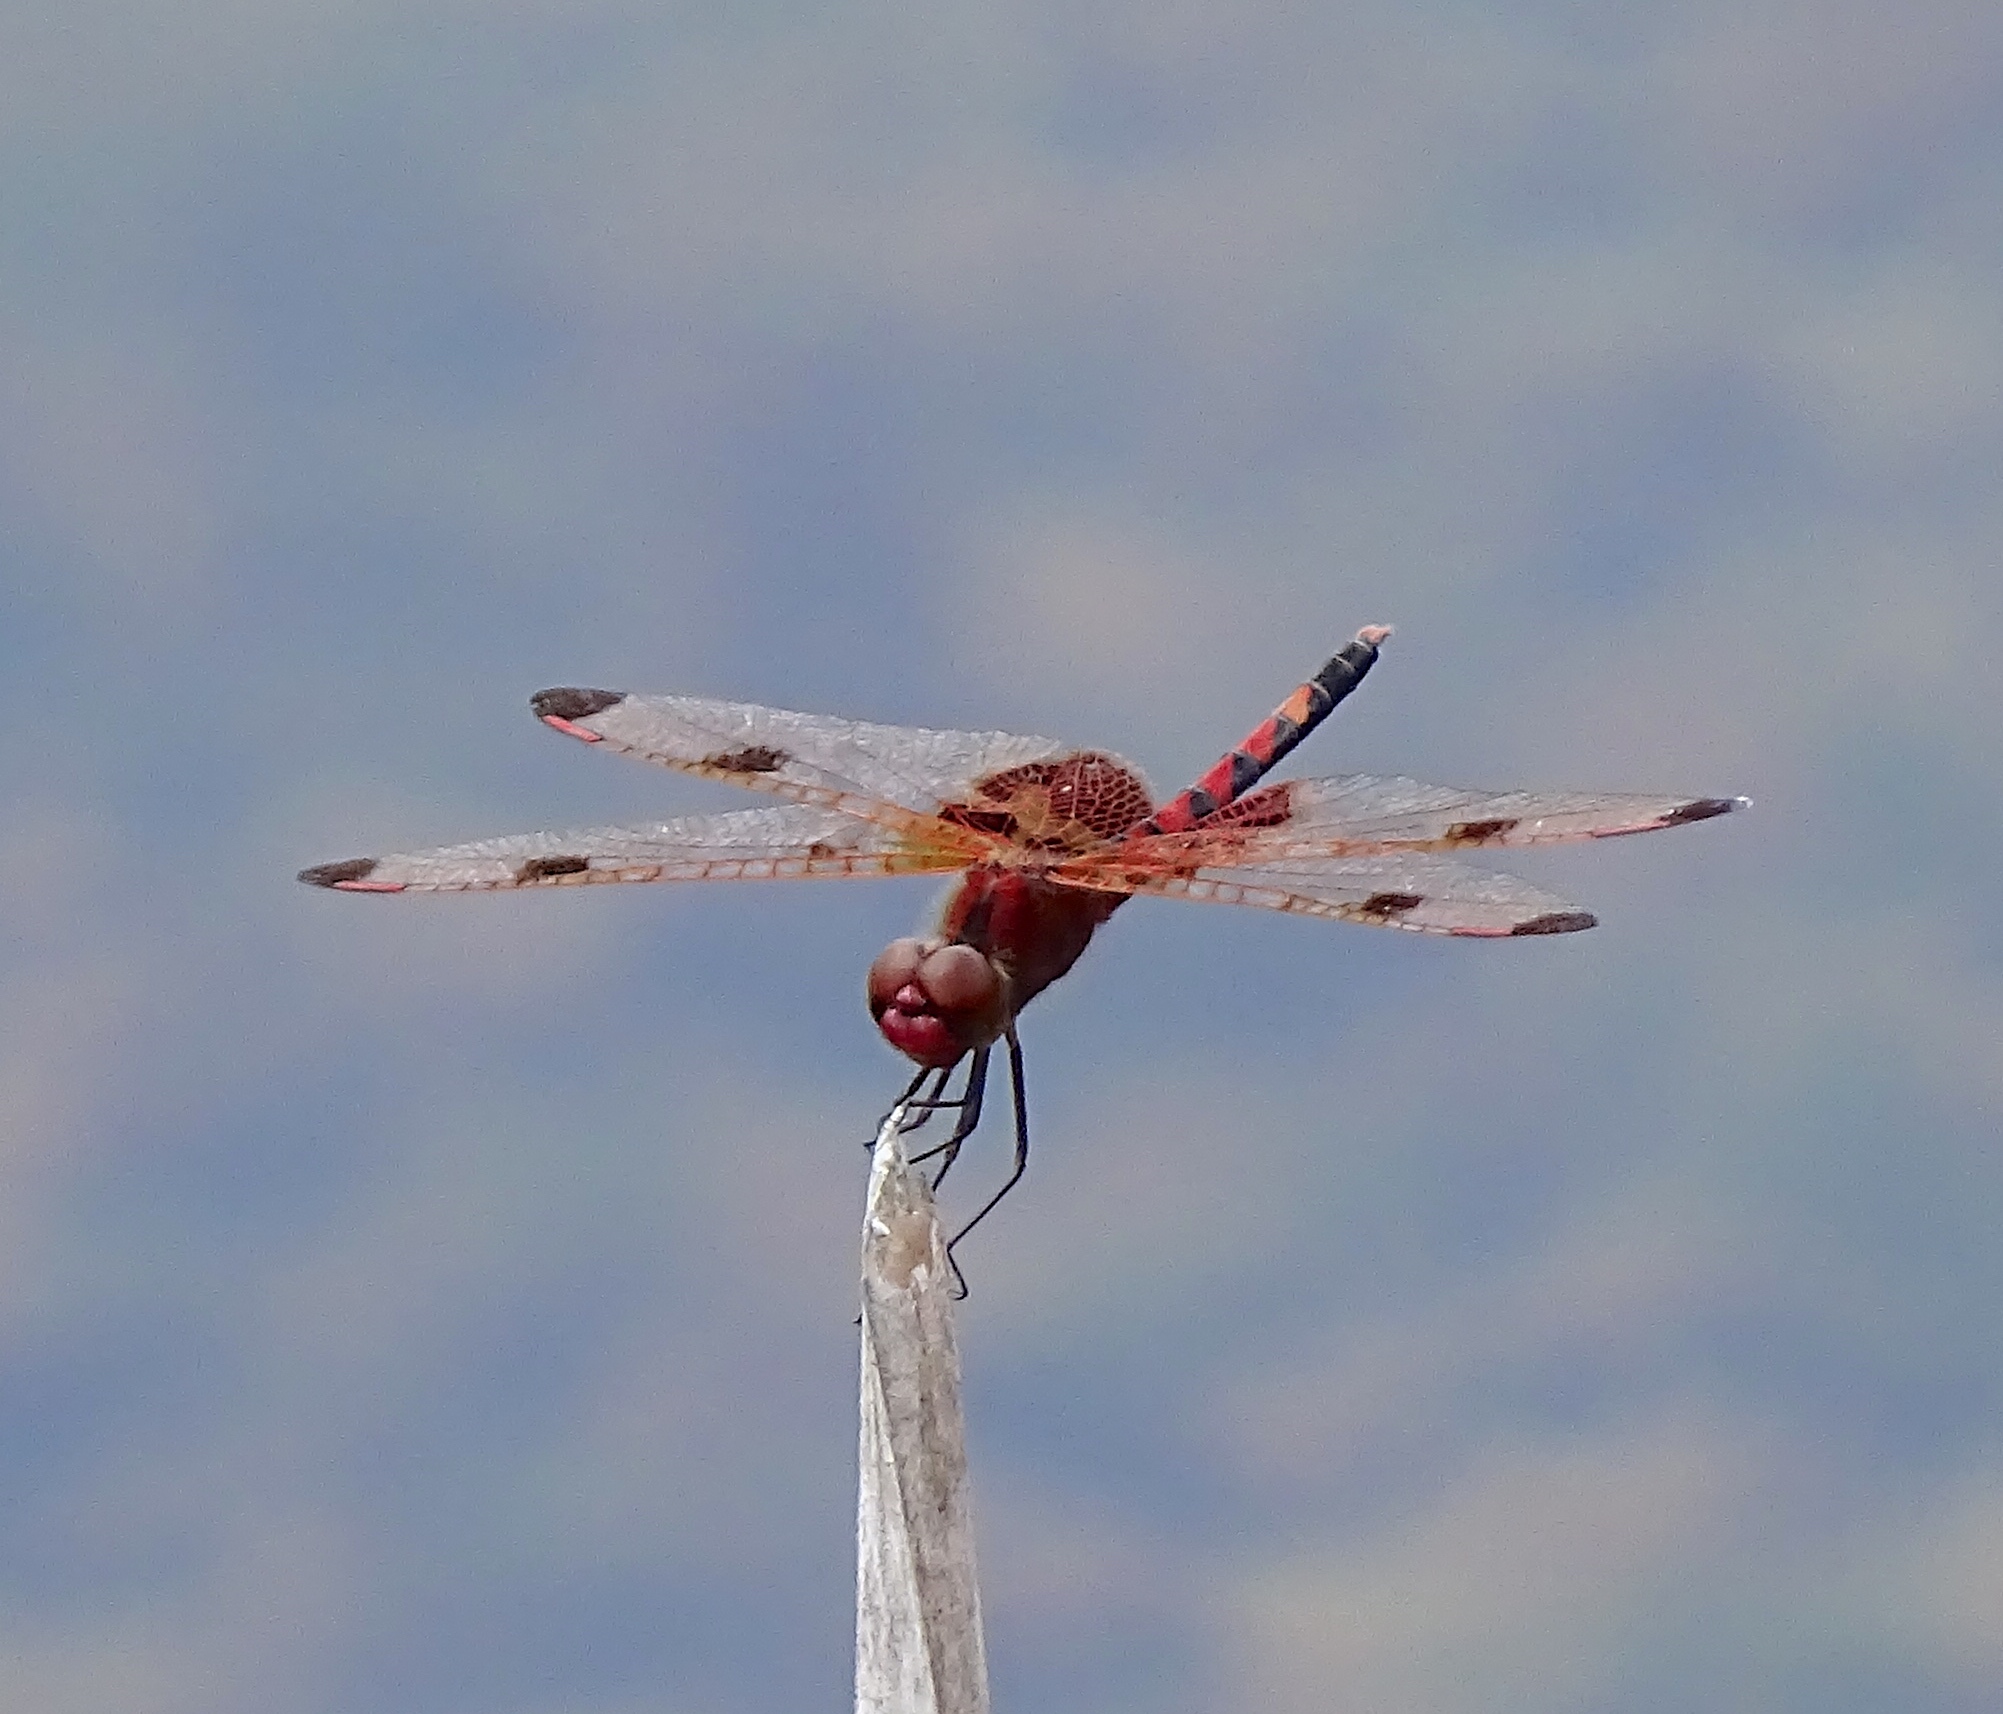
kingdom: Animalia
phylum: Arthropoda
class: Insecta
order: Odonata
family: Libellulidae
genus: Celithemis
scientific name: Celithemis elisa
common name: Calico pennant
